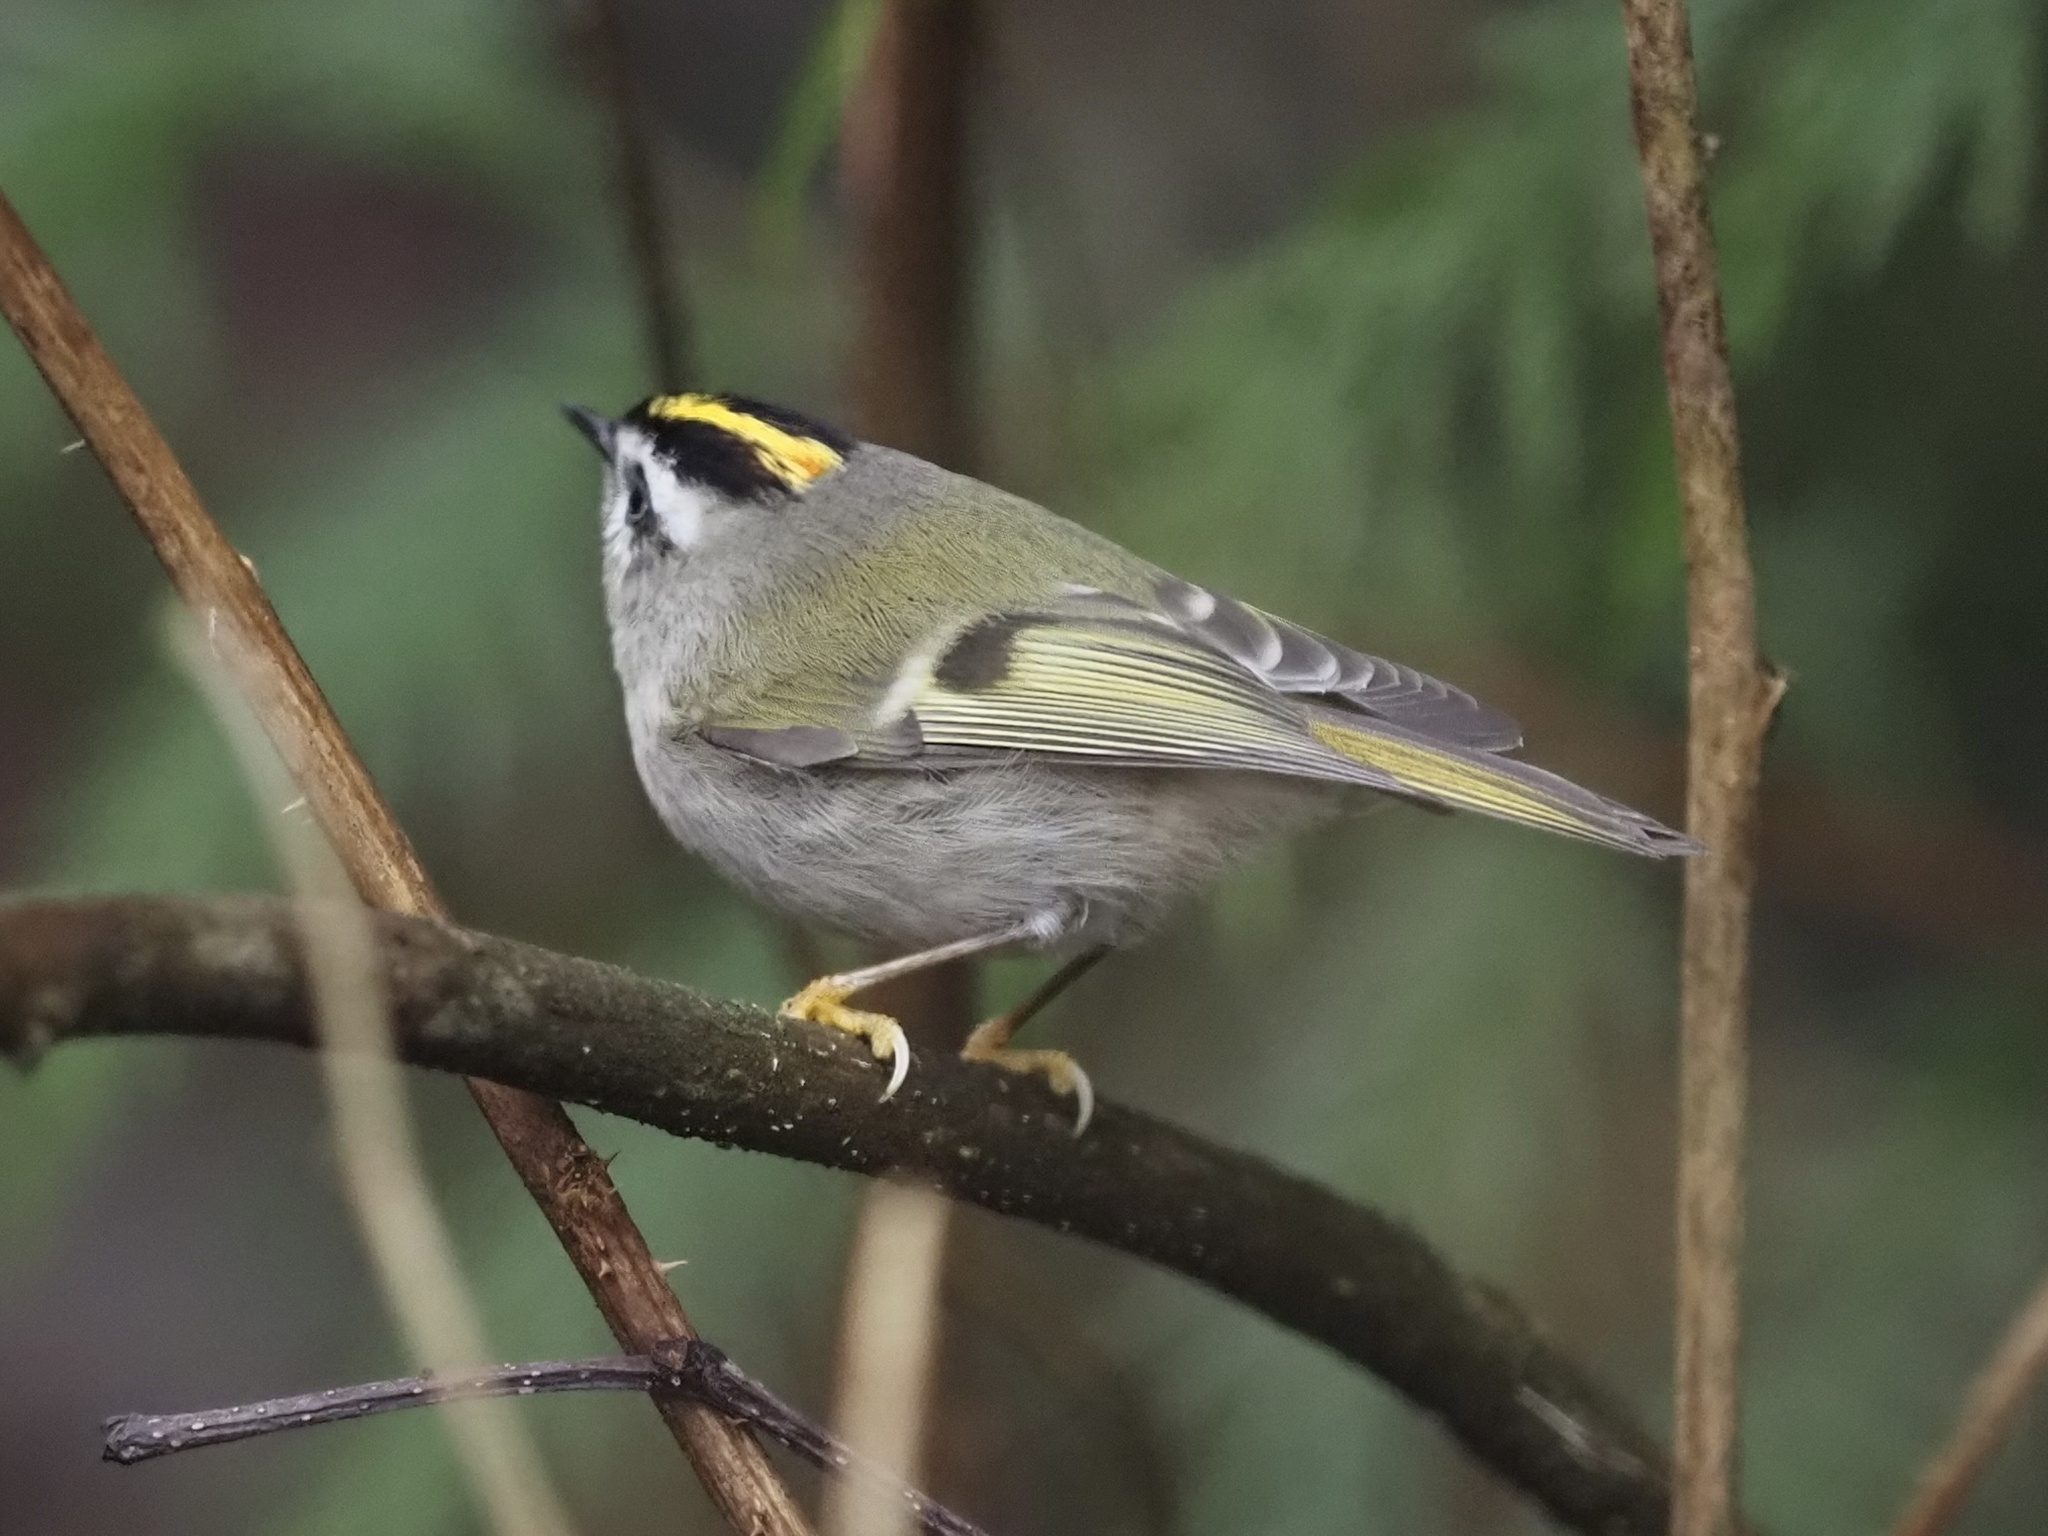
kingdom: Animalia
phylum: Chordata
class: Aves
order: Passeriformes
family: Regulidae
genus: Regulus
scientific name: Regulus satrapa
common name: Golden-crowned kinglet
